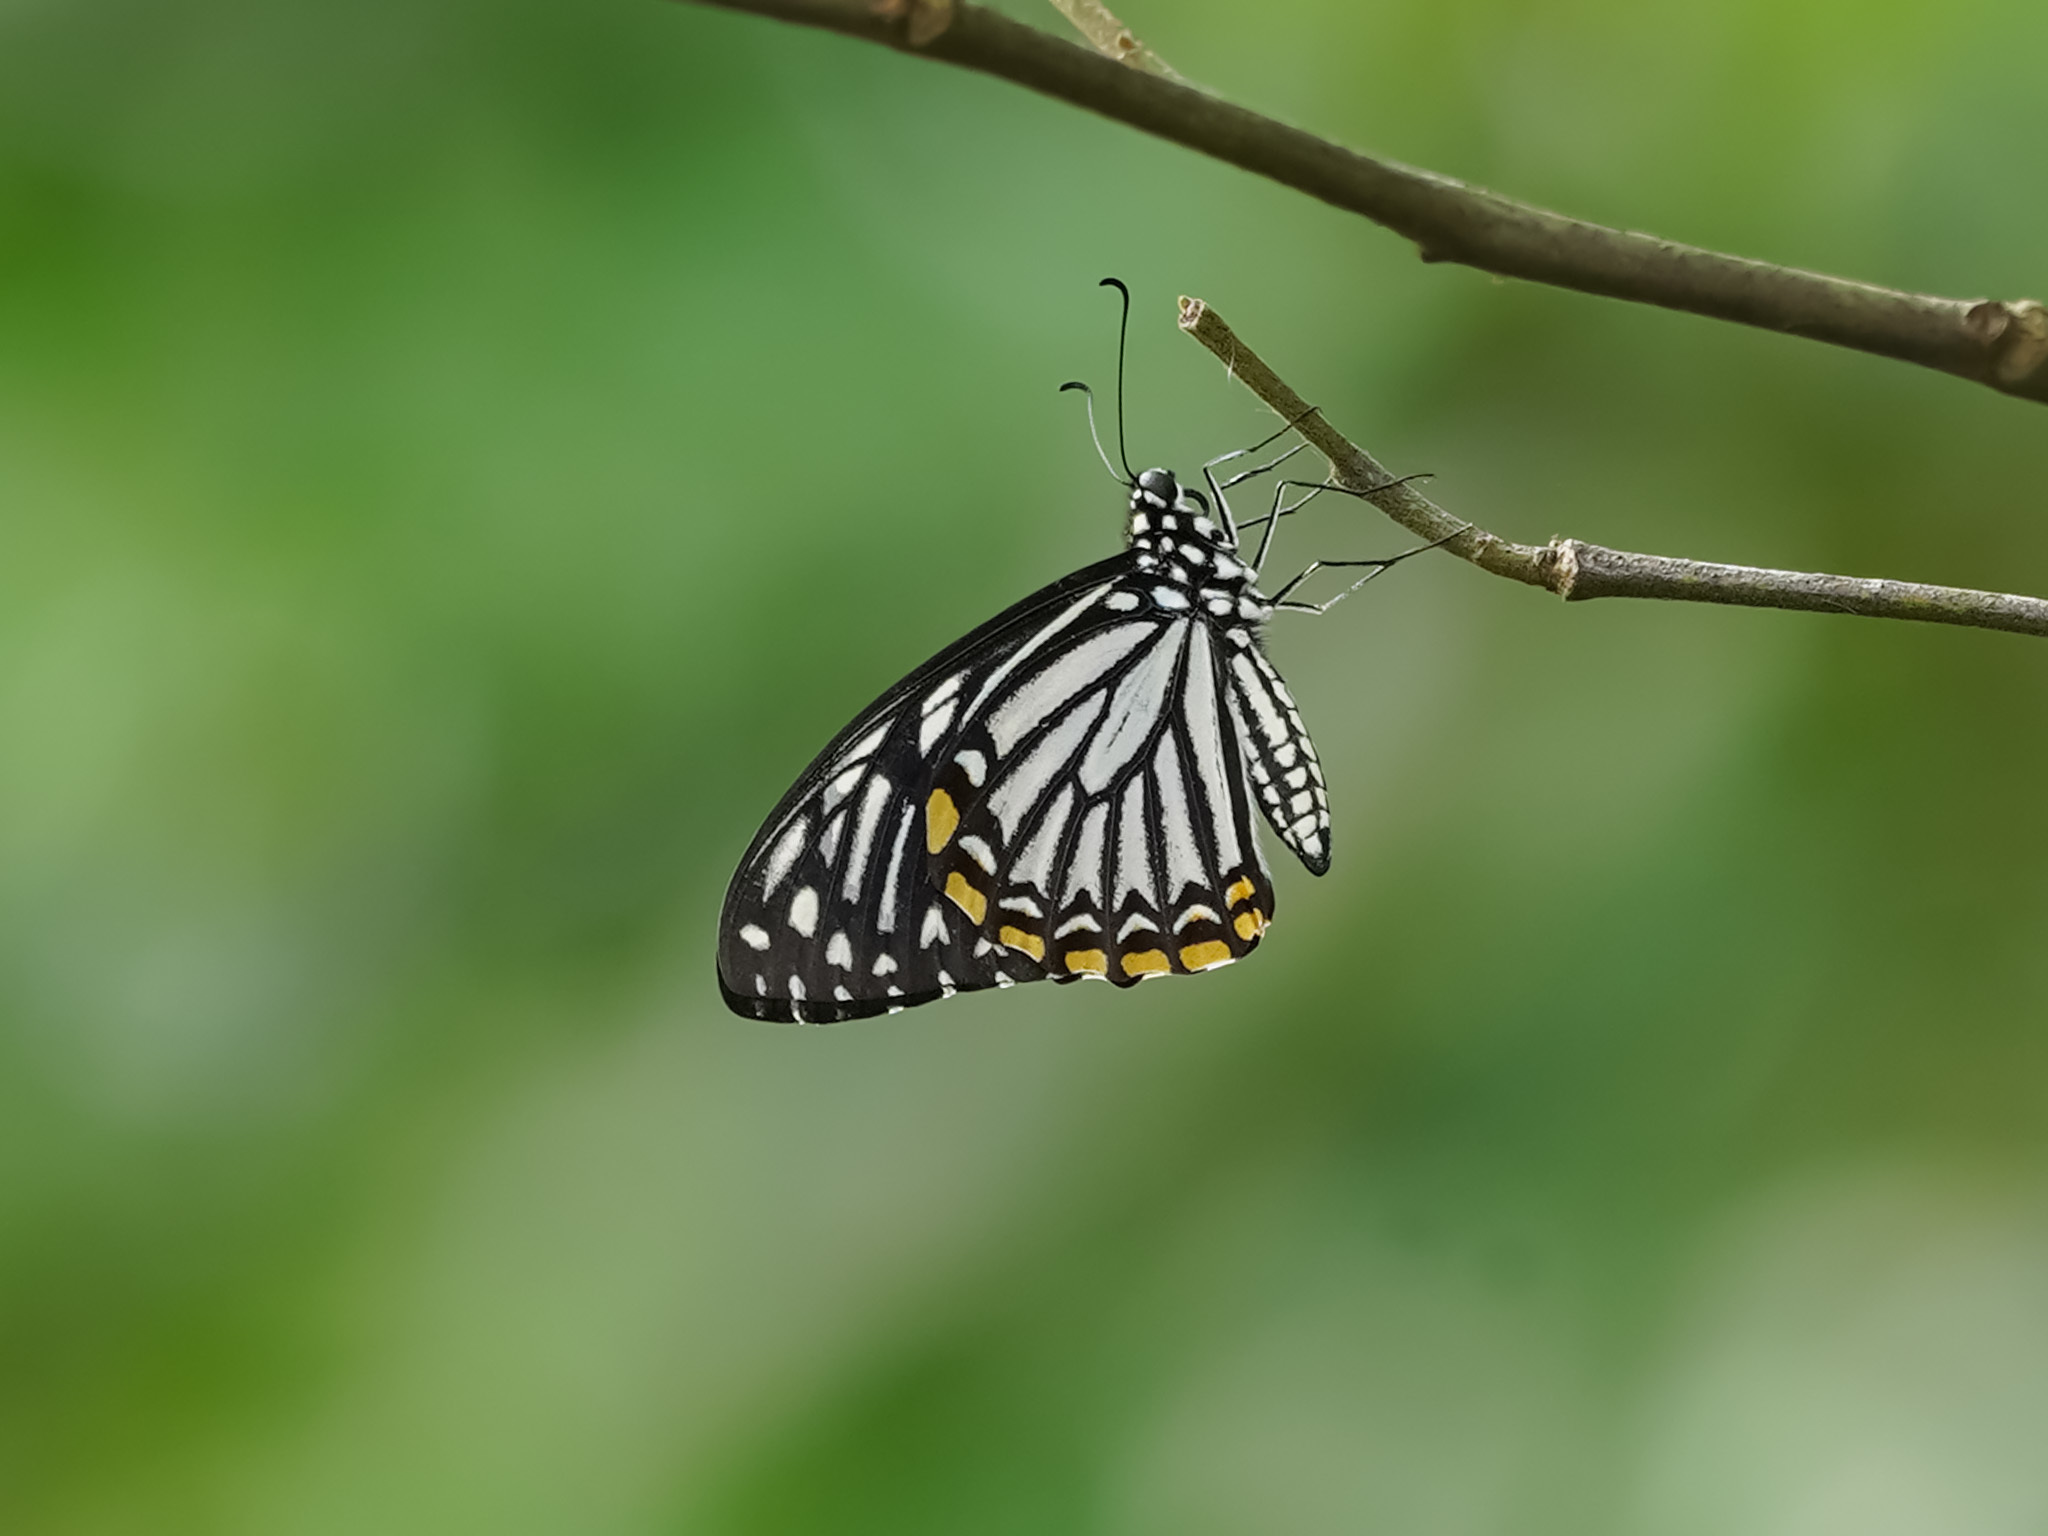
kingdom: Animalia
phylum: Arthropoda
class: Insecta
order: Lepidoptera
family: Papilionidae
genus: Chilasa
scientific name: Chilasa clytia
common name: Common mime
